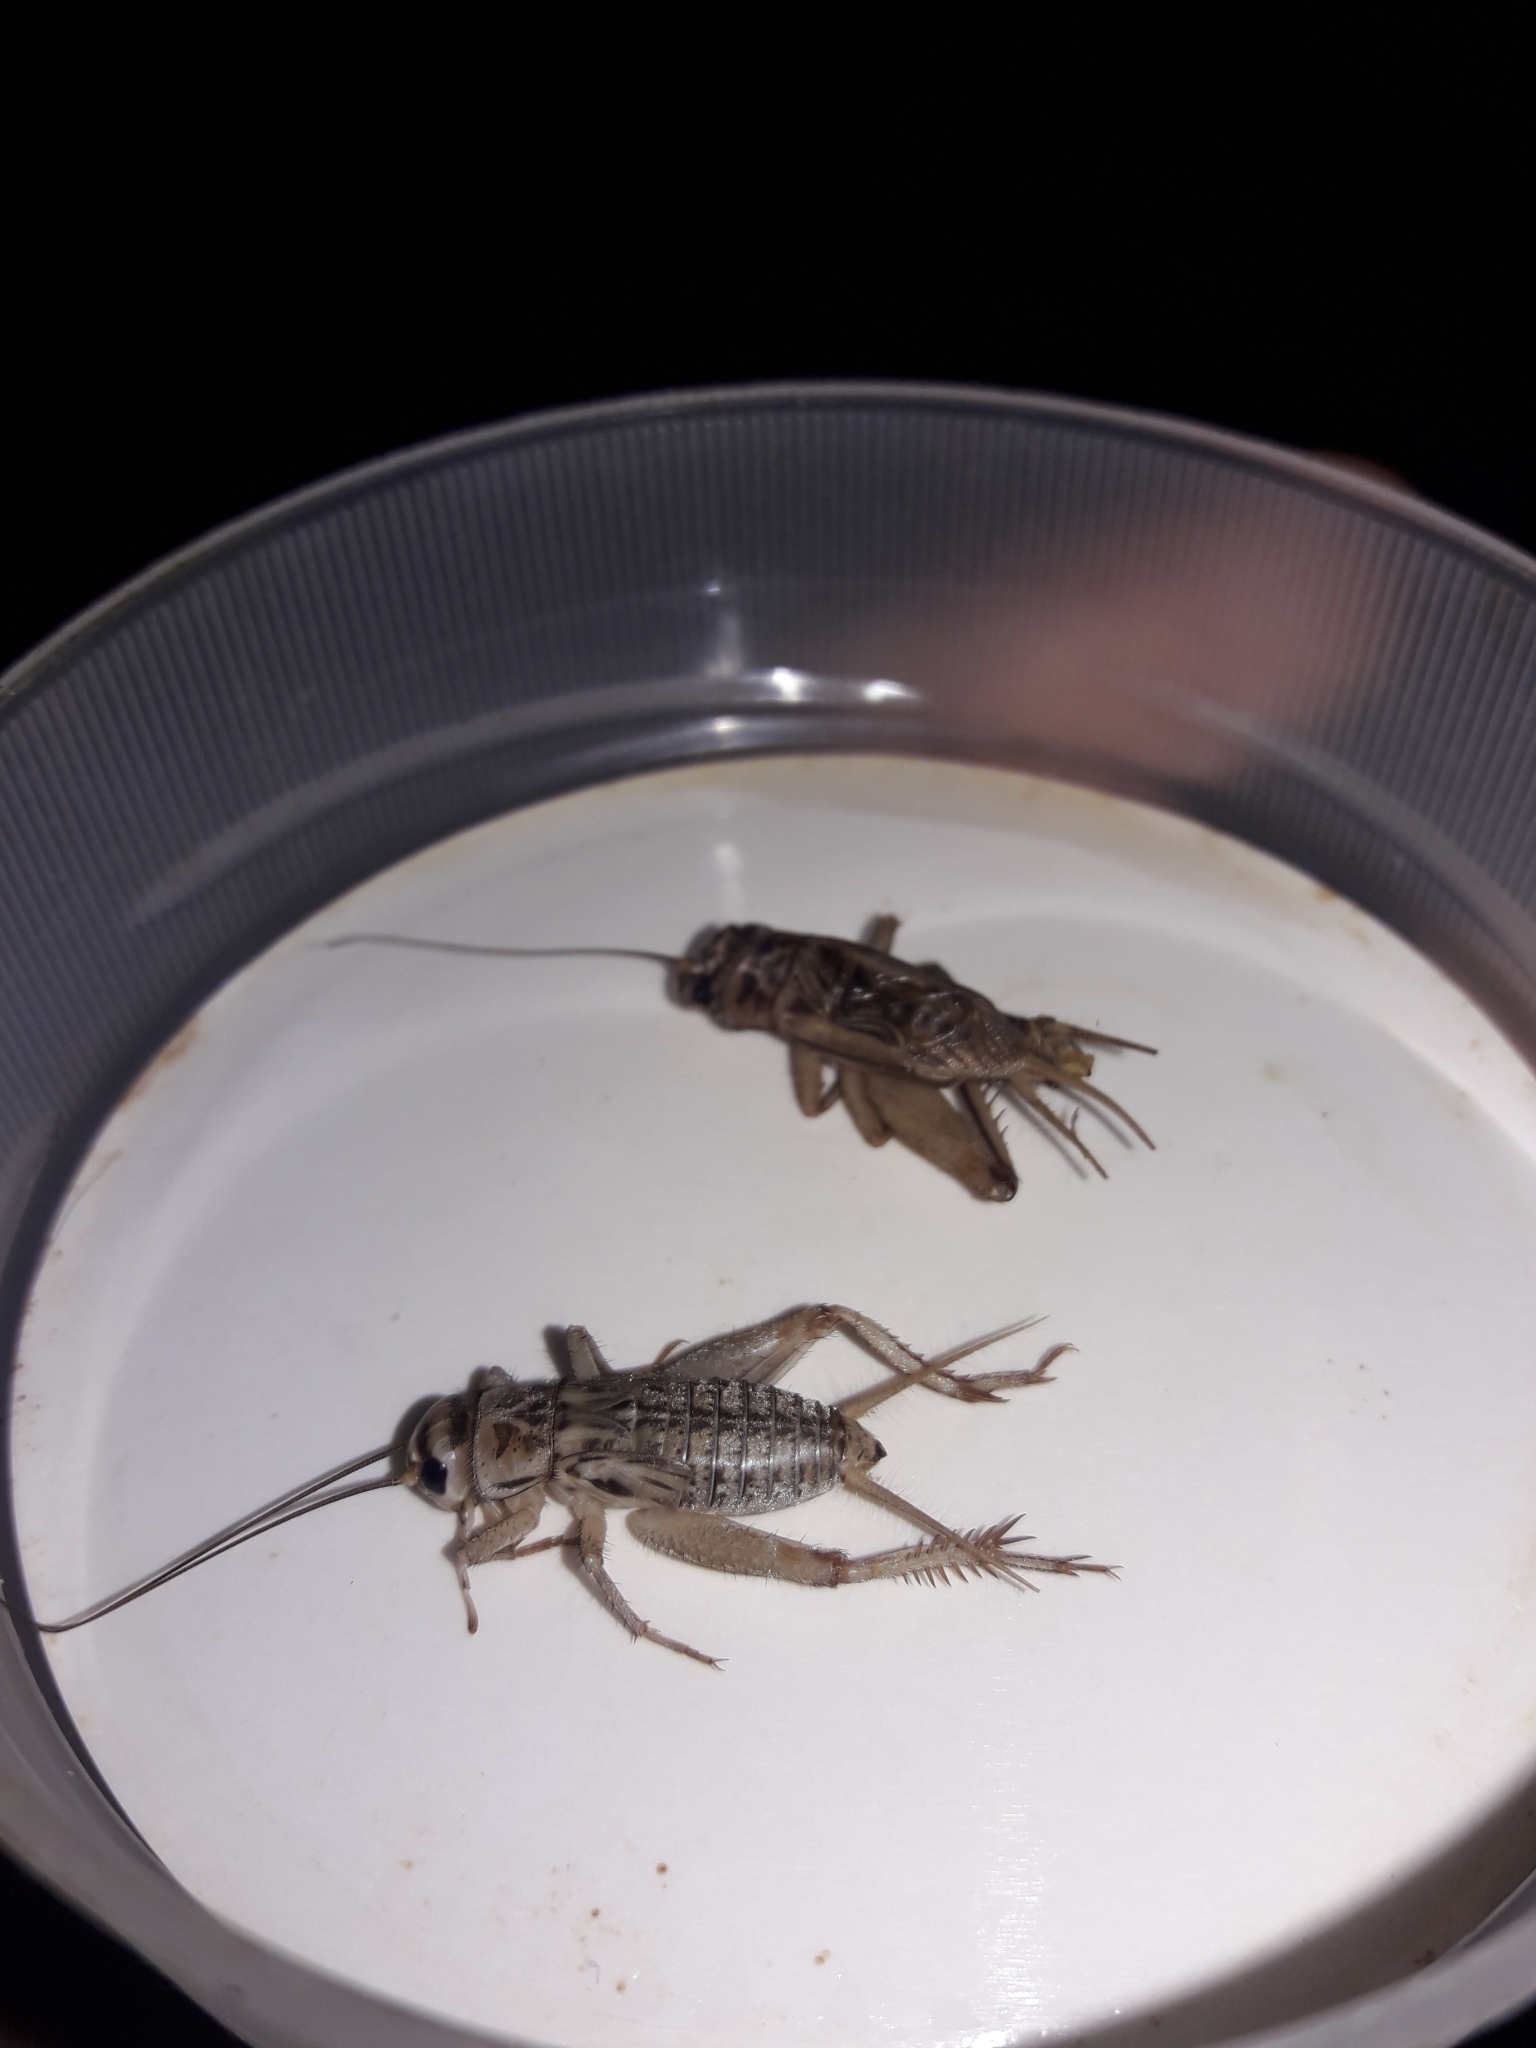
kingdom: Animalia
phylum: Arthropoda
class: Insecta
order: Orthoptera
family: Gryllidae
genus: Acheta
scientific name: Acheta domesticus
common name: House cricket
